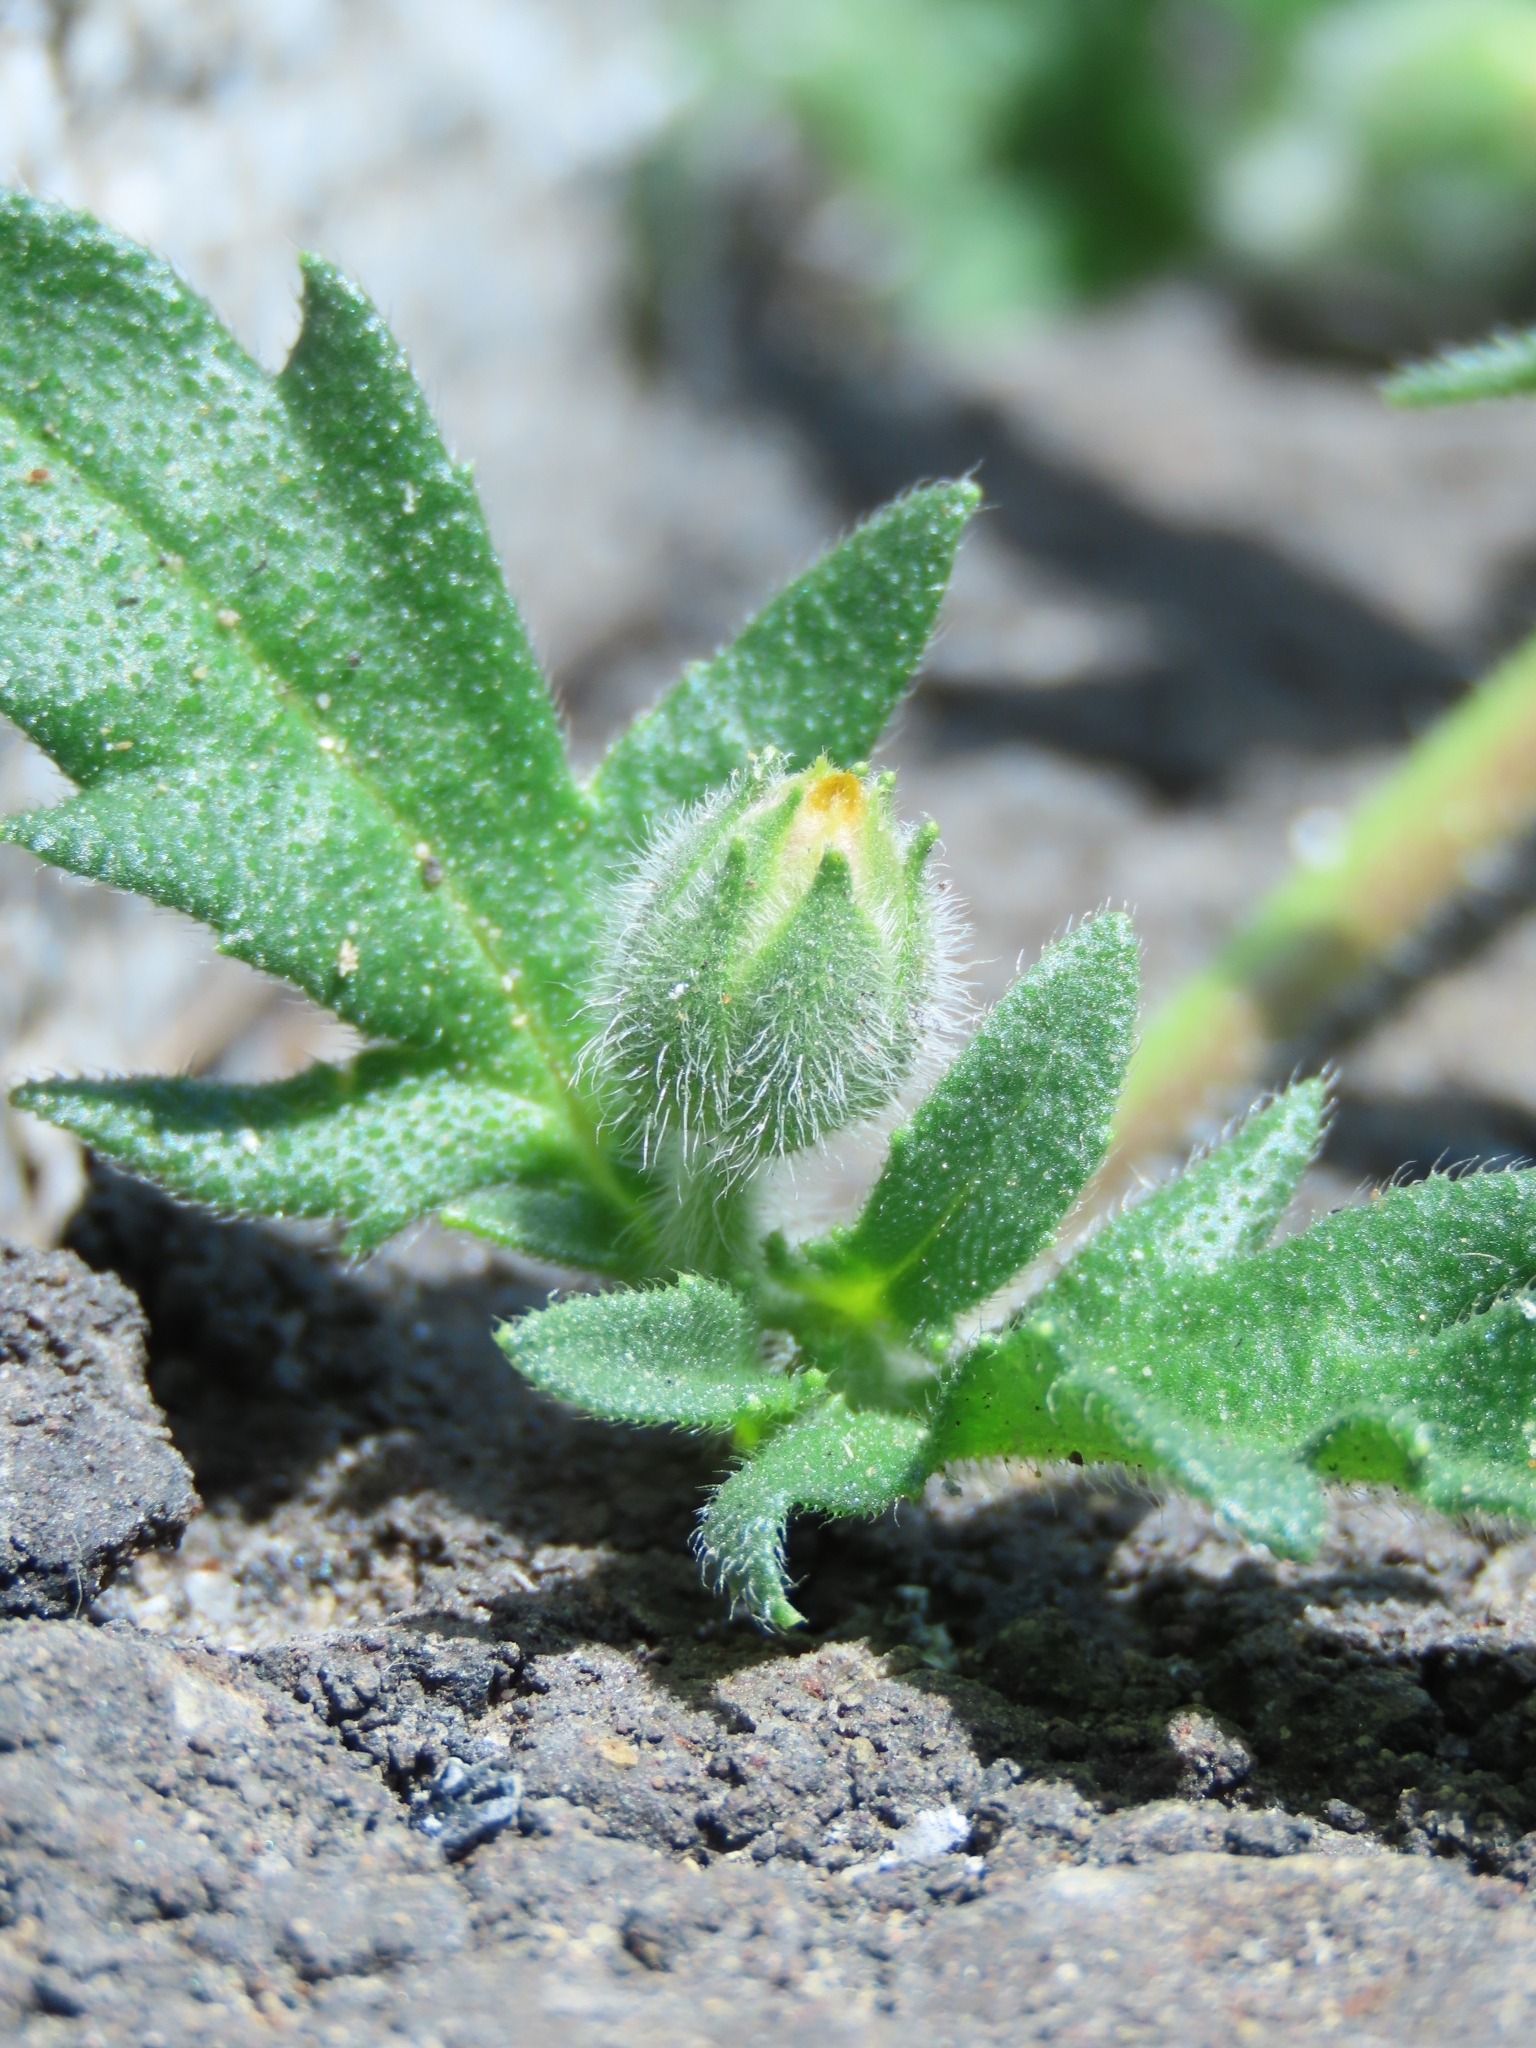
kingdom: Plantae
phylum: Tracheophyta
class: Magnoliopsida
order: Asterales
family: Asteraceae
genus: Tridax
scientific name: Tridax procumbens
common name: Coatbuttons
